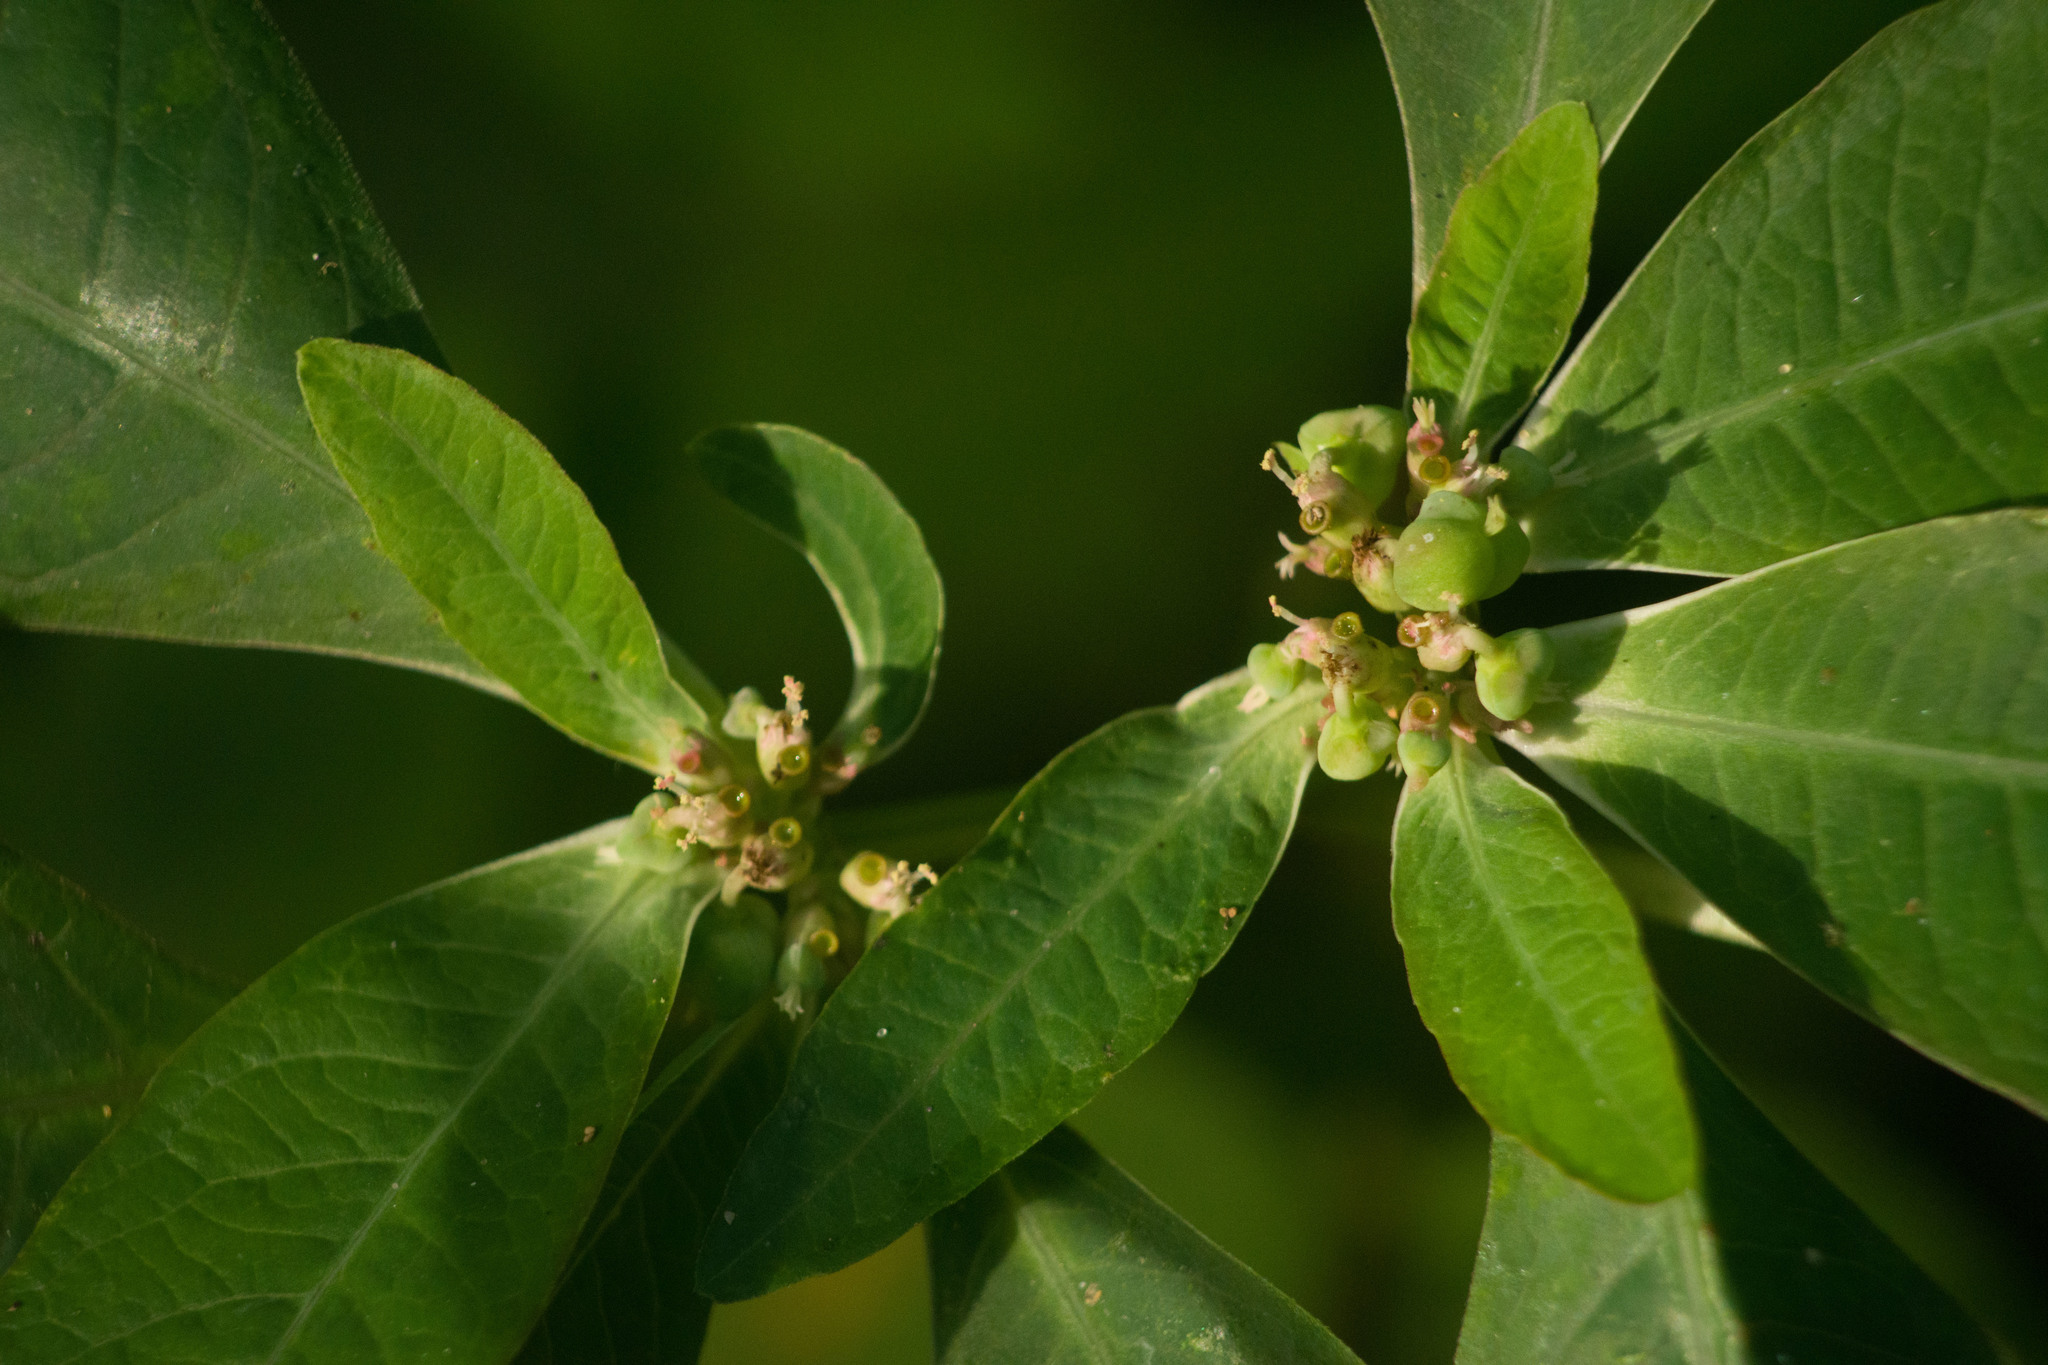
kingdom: Plantae
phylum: Tracheophyta
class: Magnoliopsida
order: Malpighiales
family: Euphorbiaceae
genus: Euphorbia
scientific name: Euphorbia heterophylla
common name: Mexican fireplant
